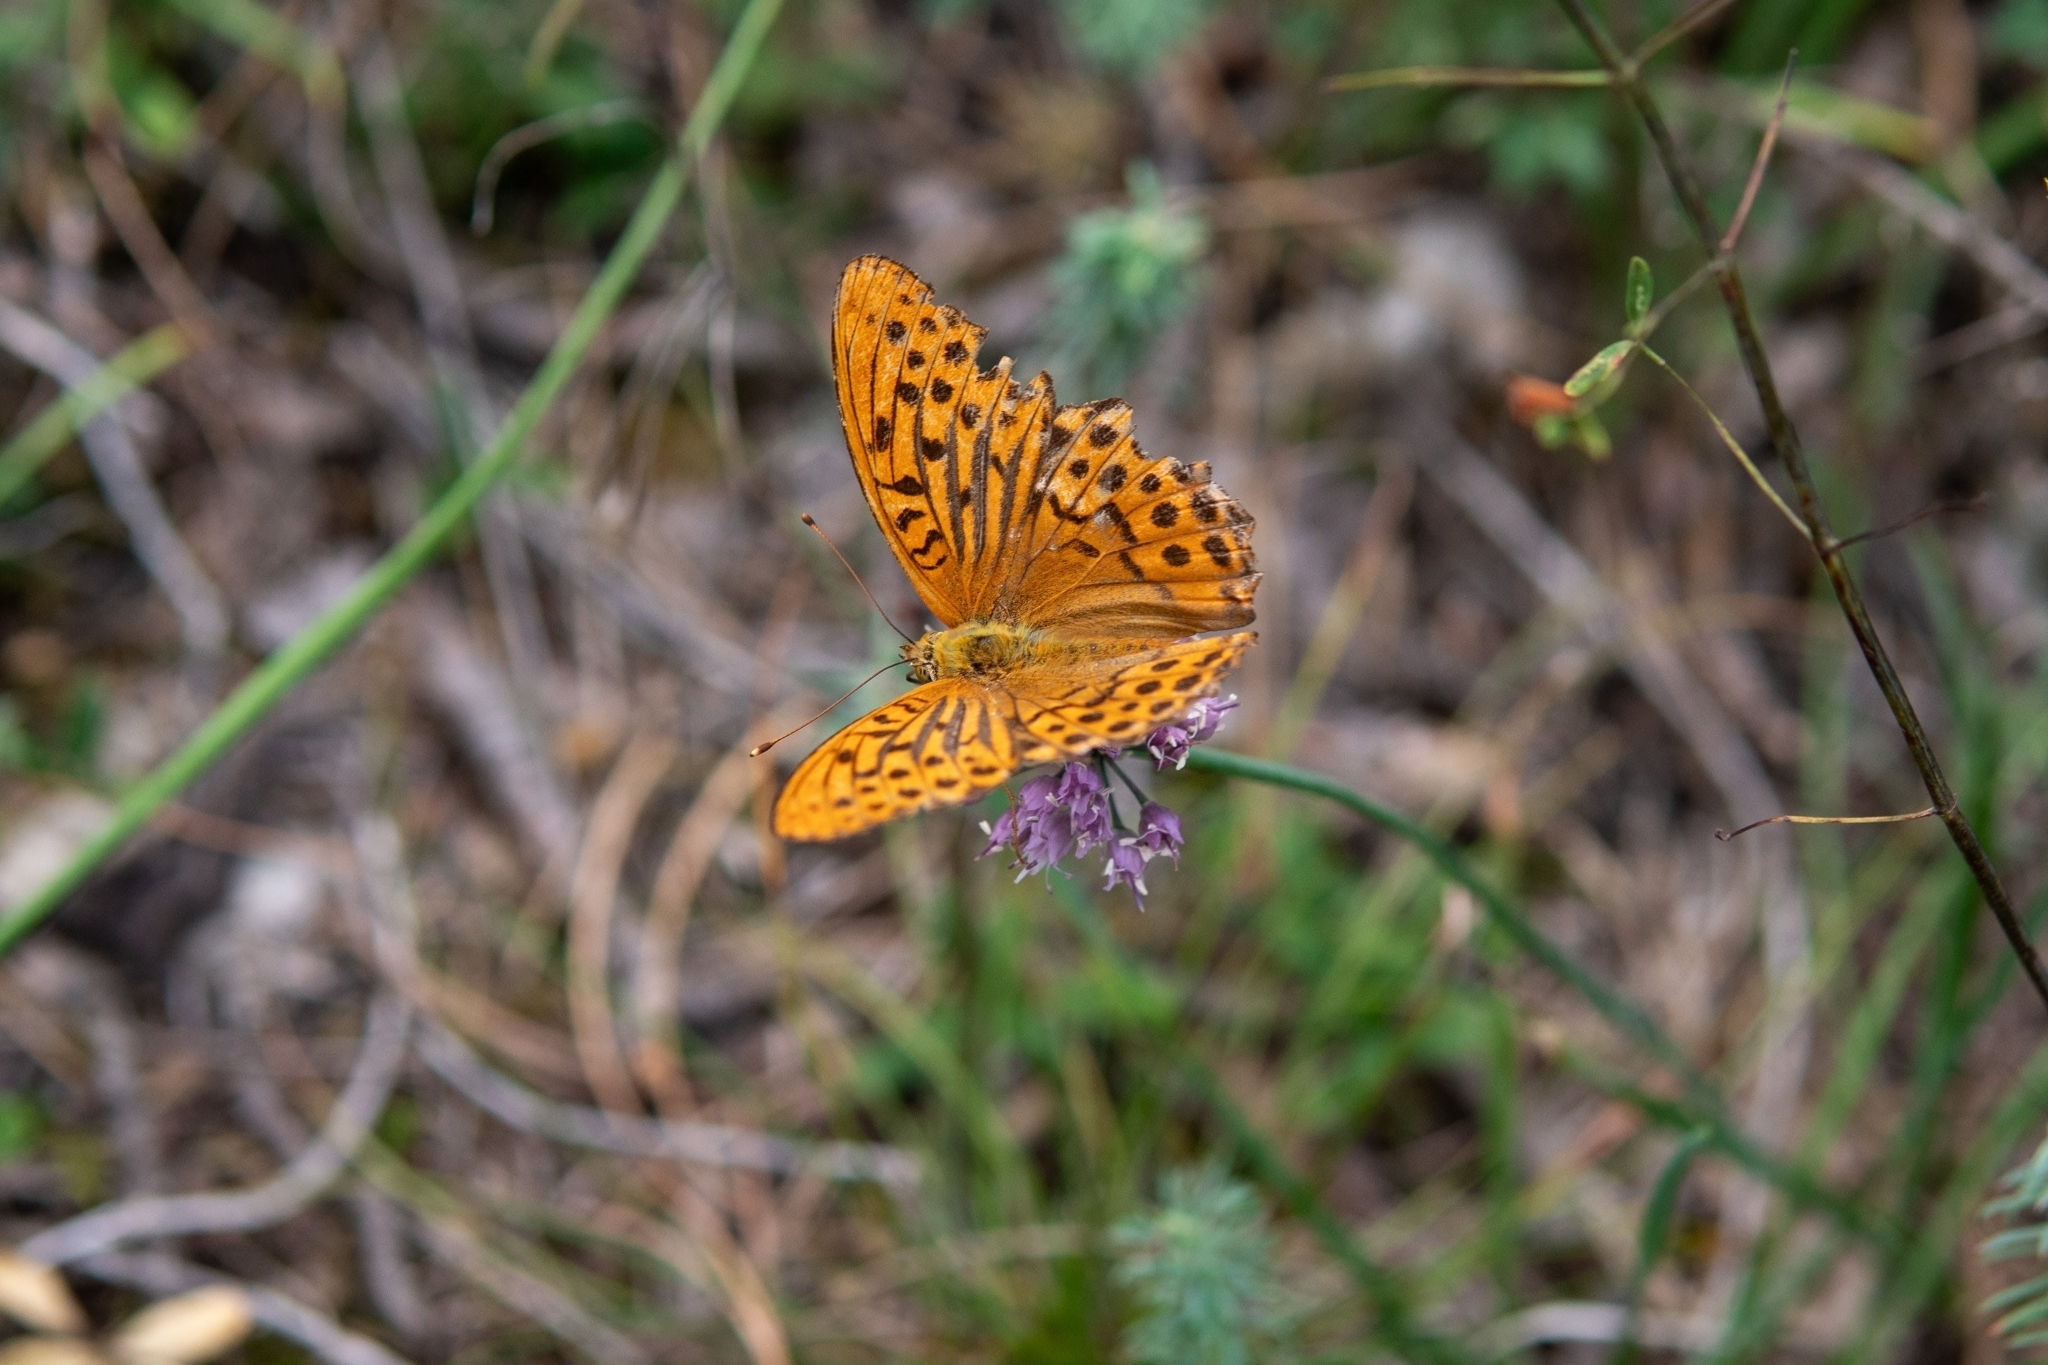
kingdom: Animalia
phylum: Arthropoda
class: Insecta
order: Lepidoptera
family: Nymphalidae
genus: Argynnis
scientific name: Argynnis paphia
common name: Silver-washed fritillary
